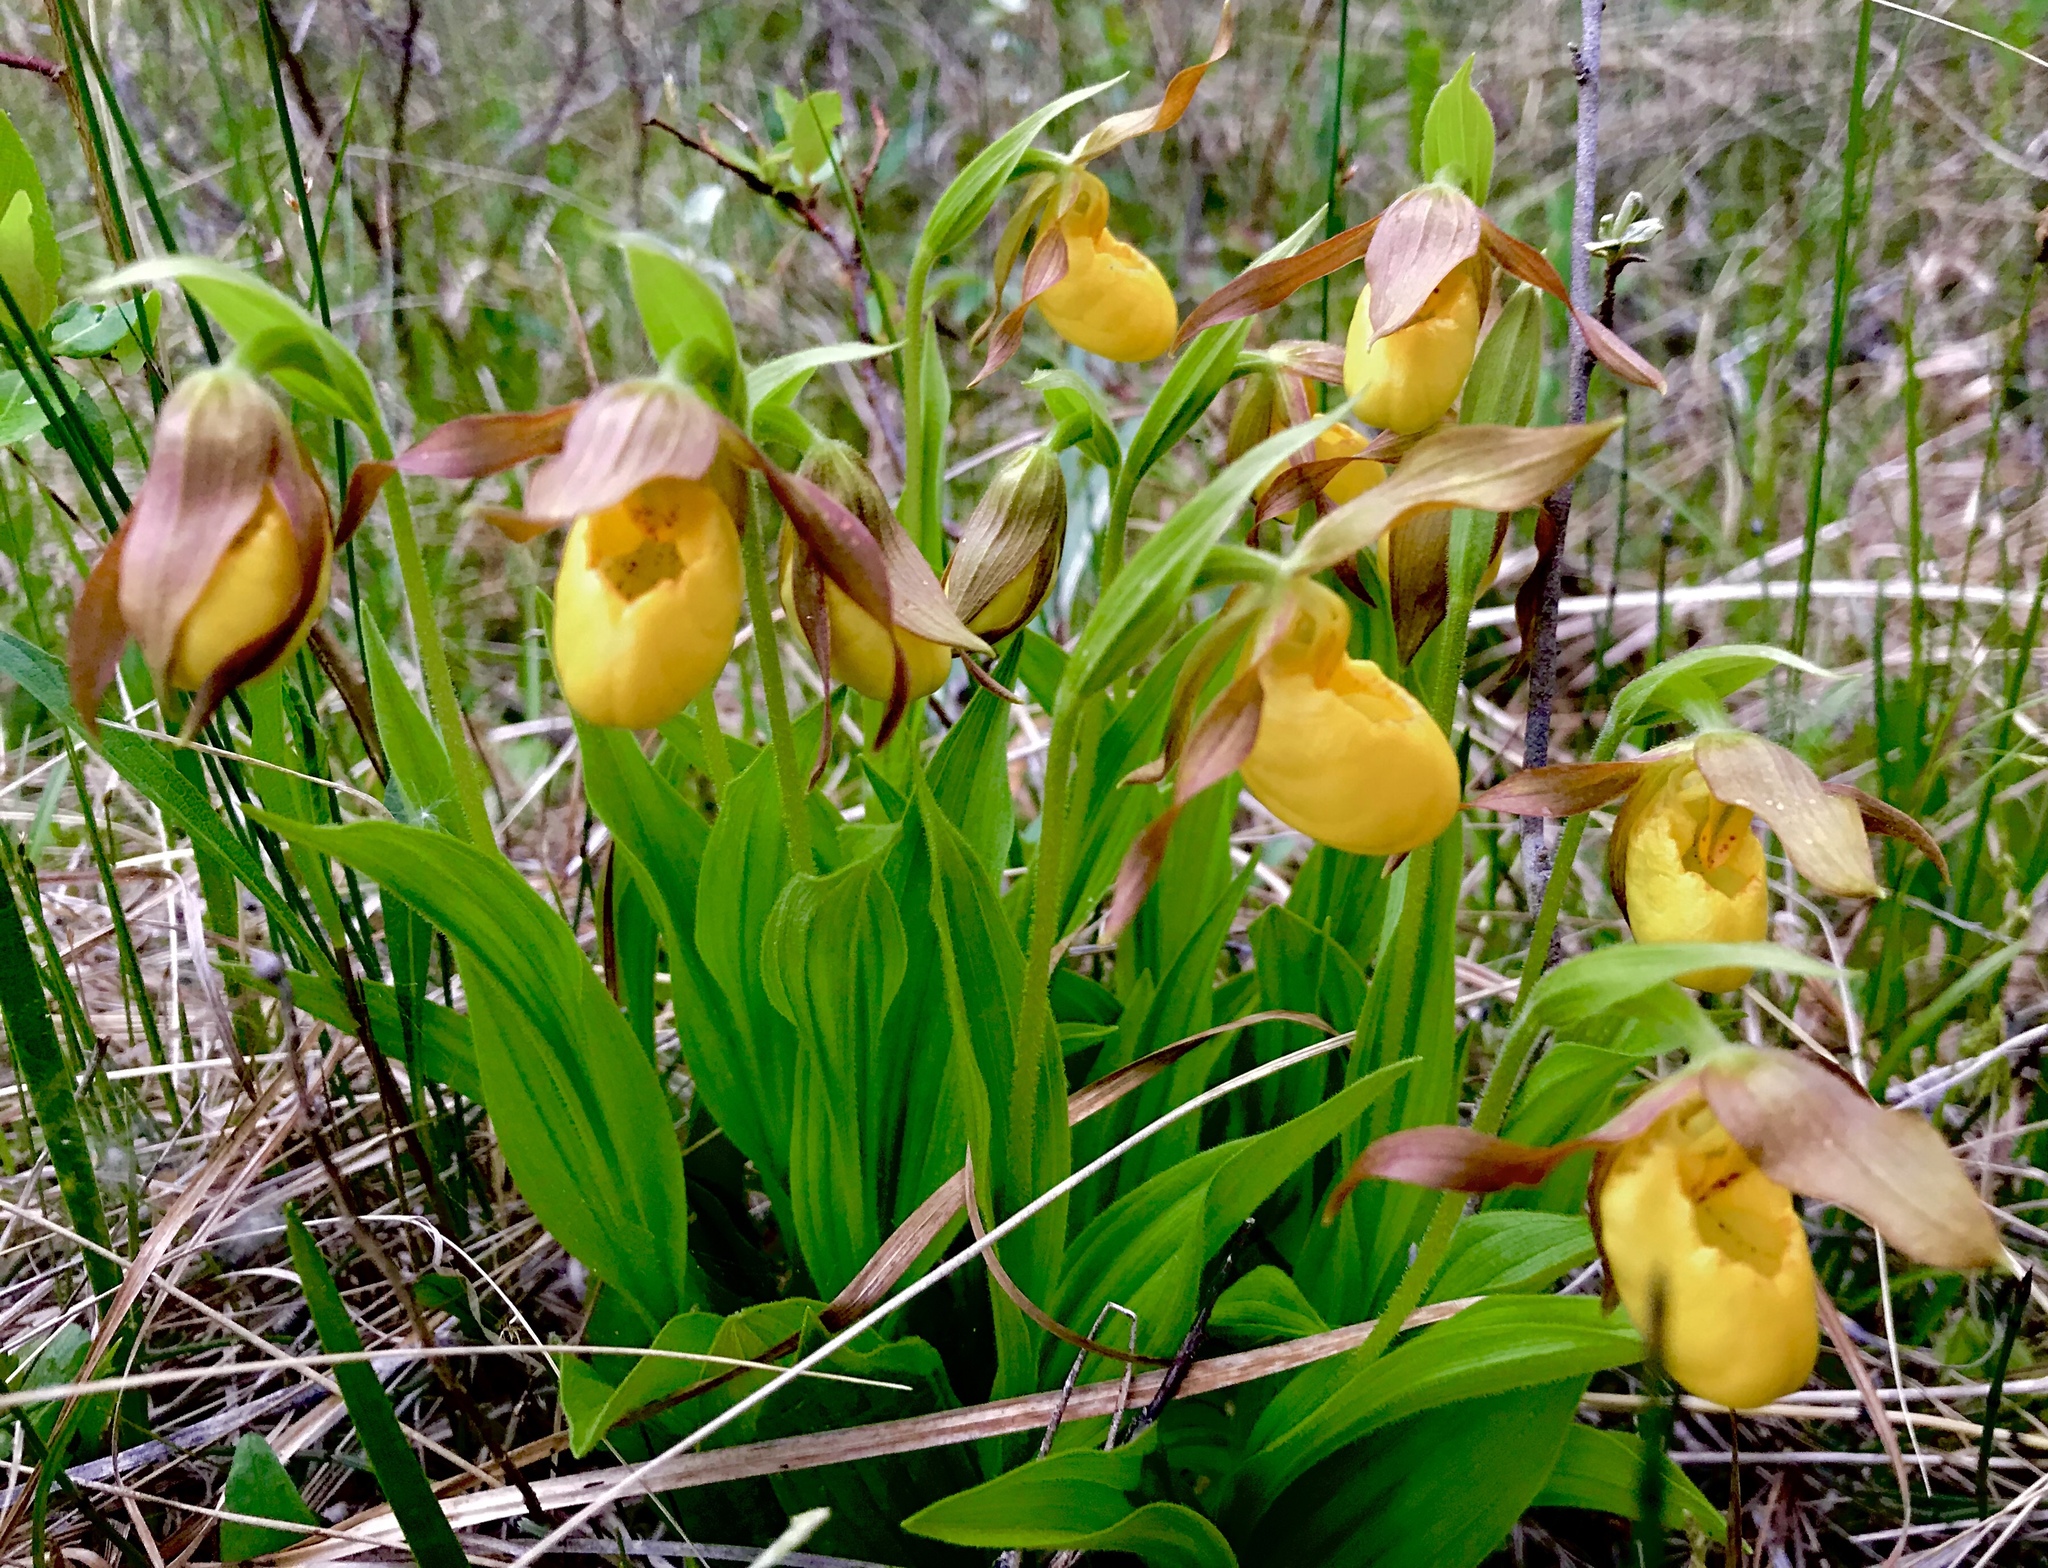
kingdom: Plantae
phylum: Tracheophyta
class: Liliopsida
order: Asparagales
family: Orchidaceae
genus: Cypripedium
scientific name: Cypripedium parviflorum
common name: American yellow lady's-slipper
